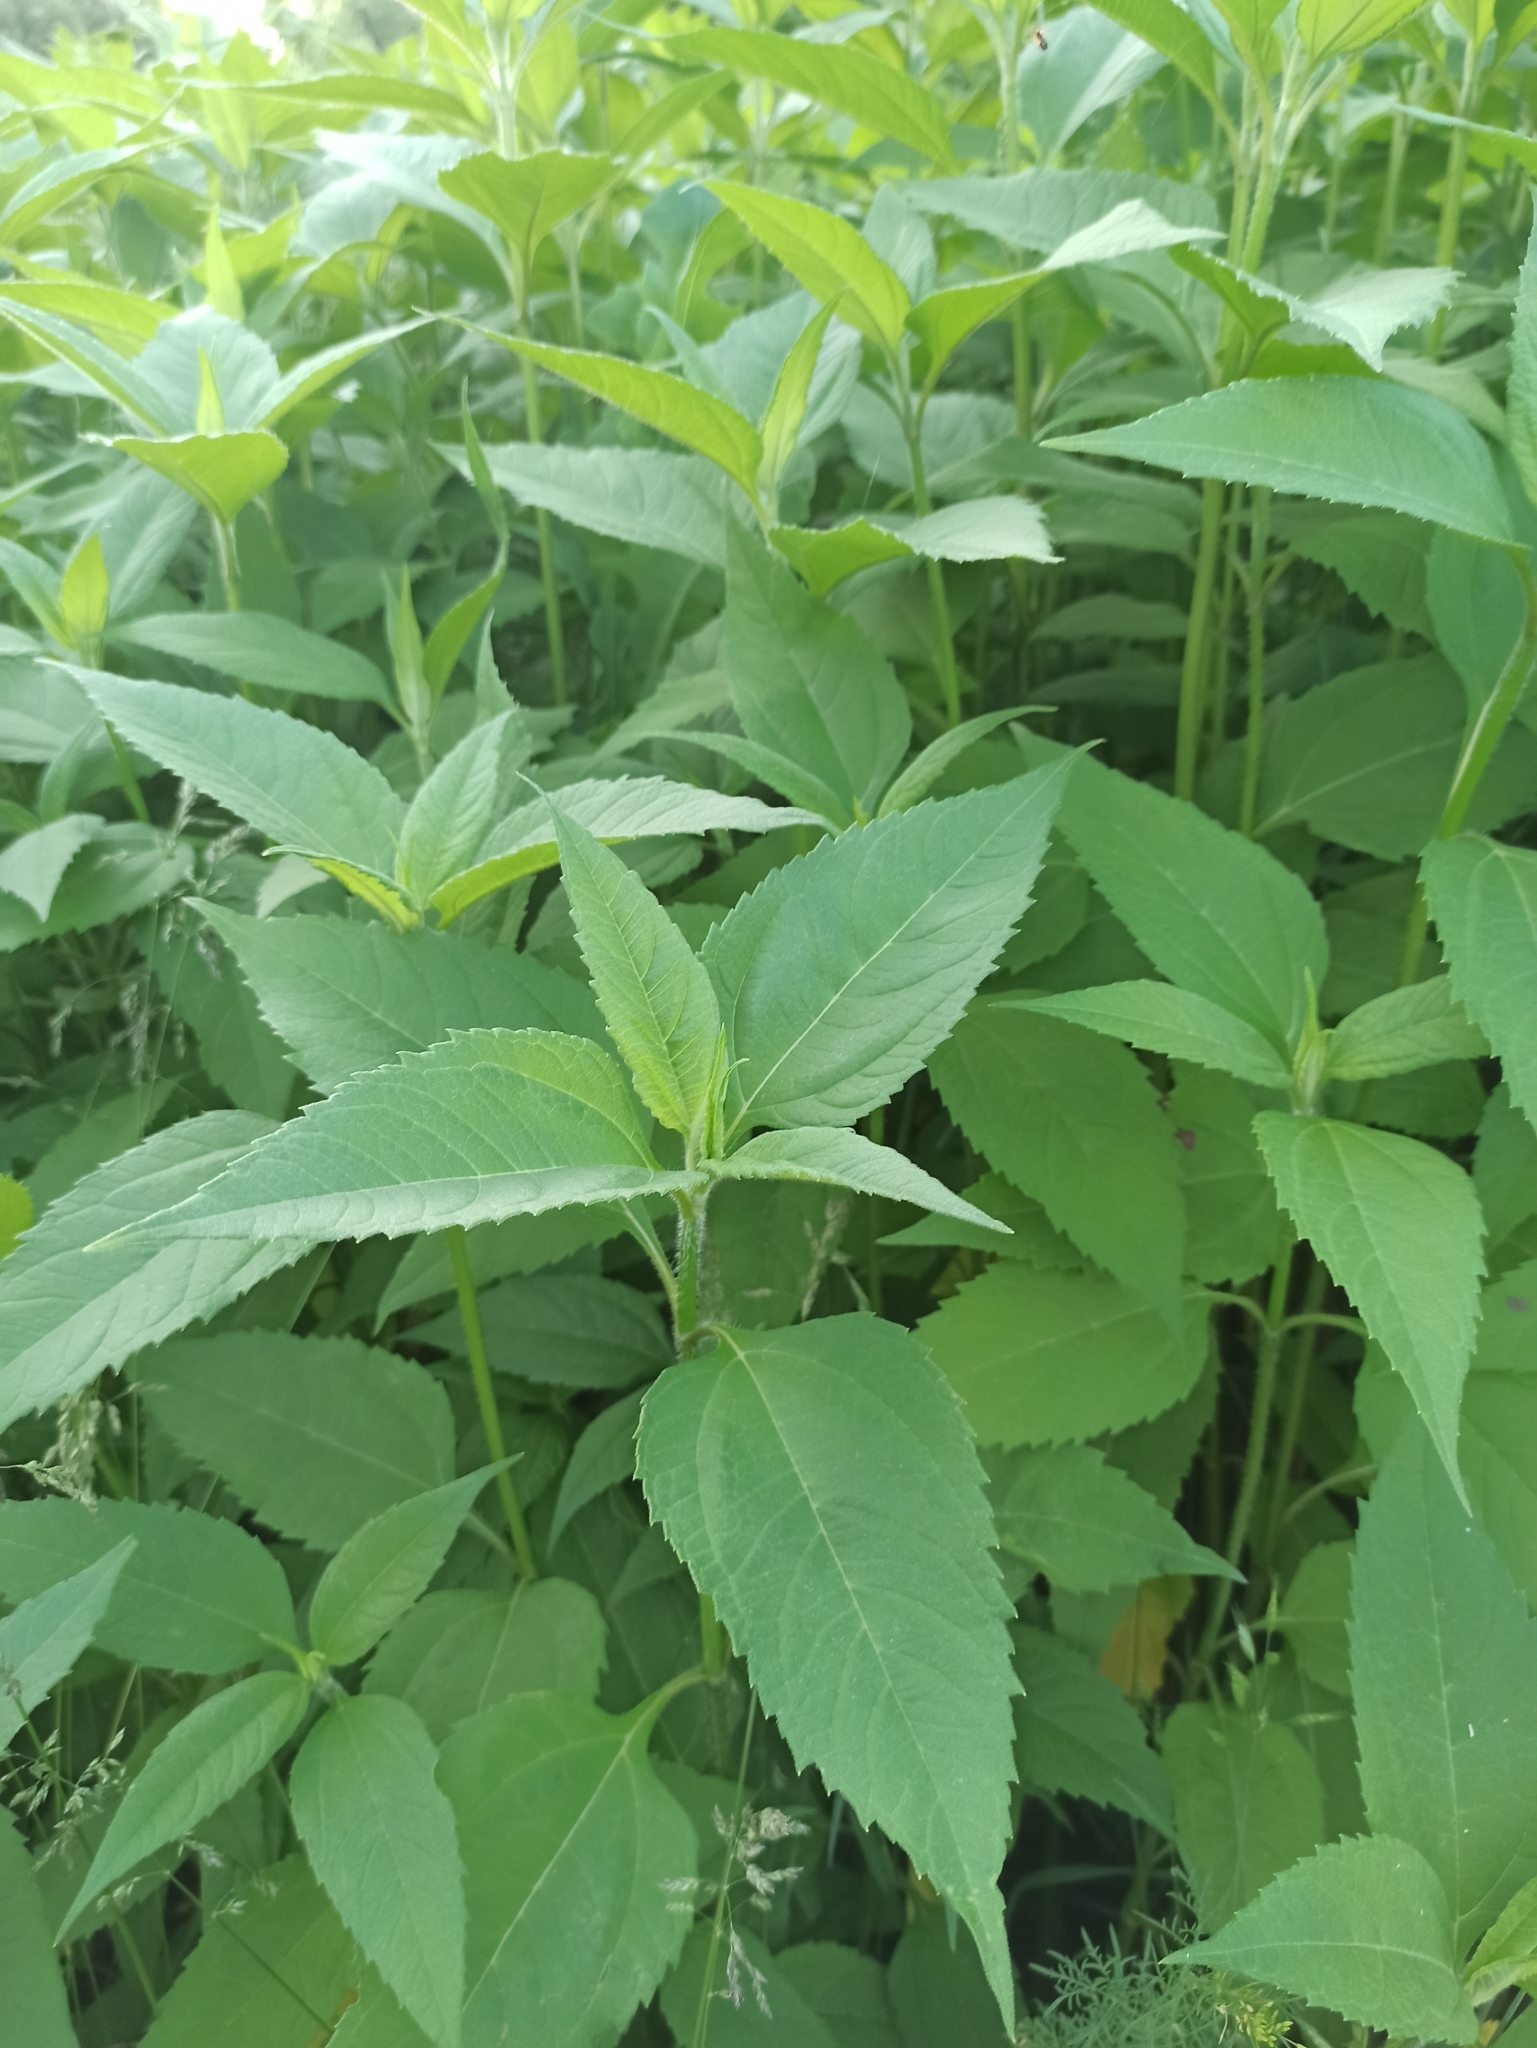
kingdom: Plantae
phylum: Tracheophyta
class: Magnoliopsida
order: Asterales
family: Asteraceae
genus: Helianthus
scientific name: Helianthus tuberosus
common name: Jerusalem artichoke
